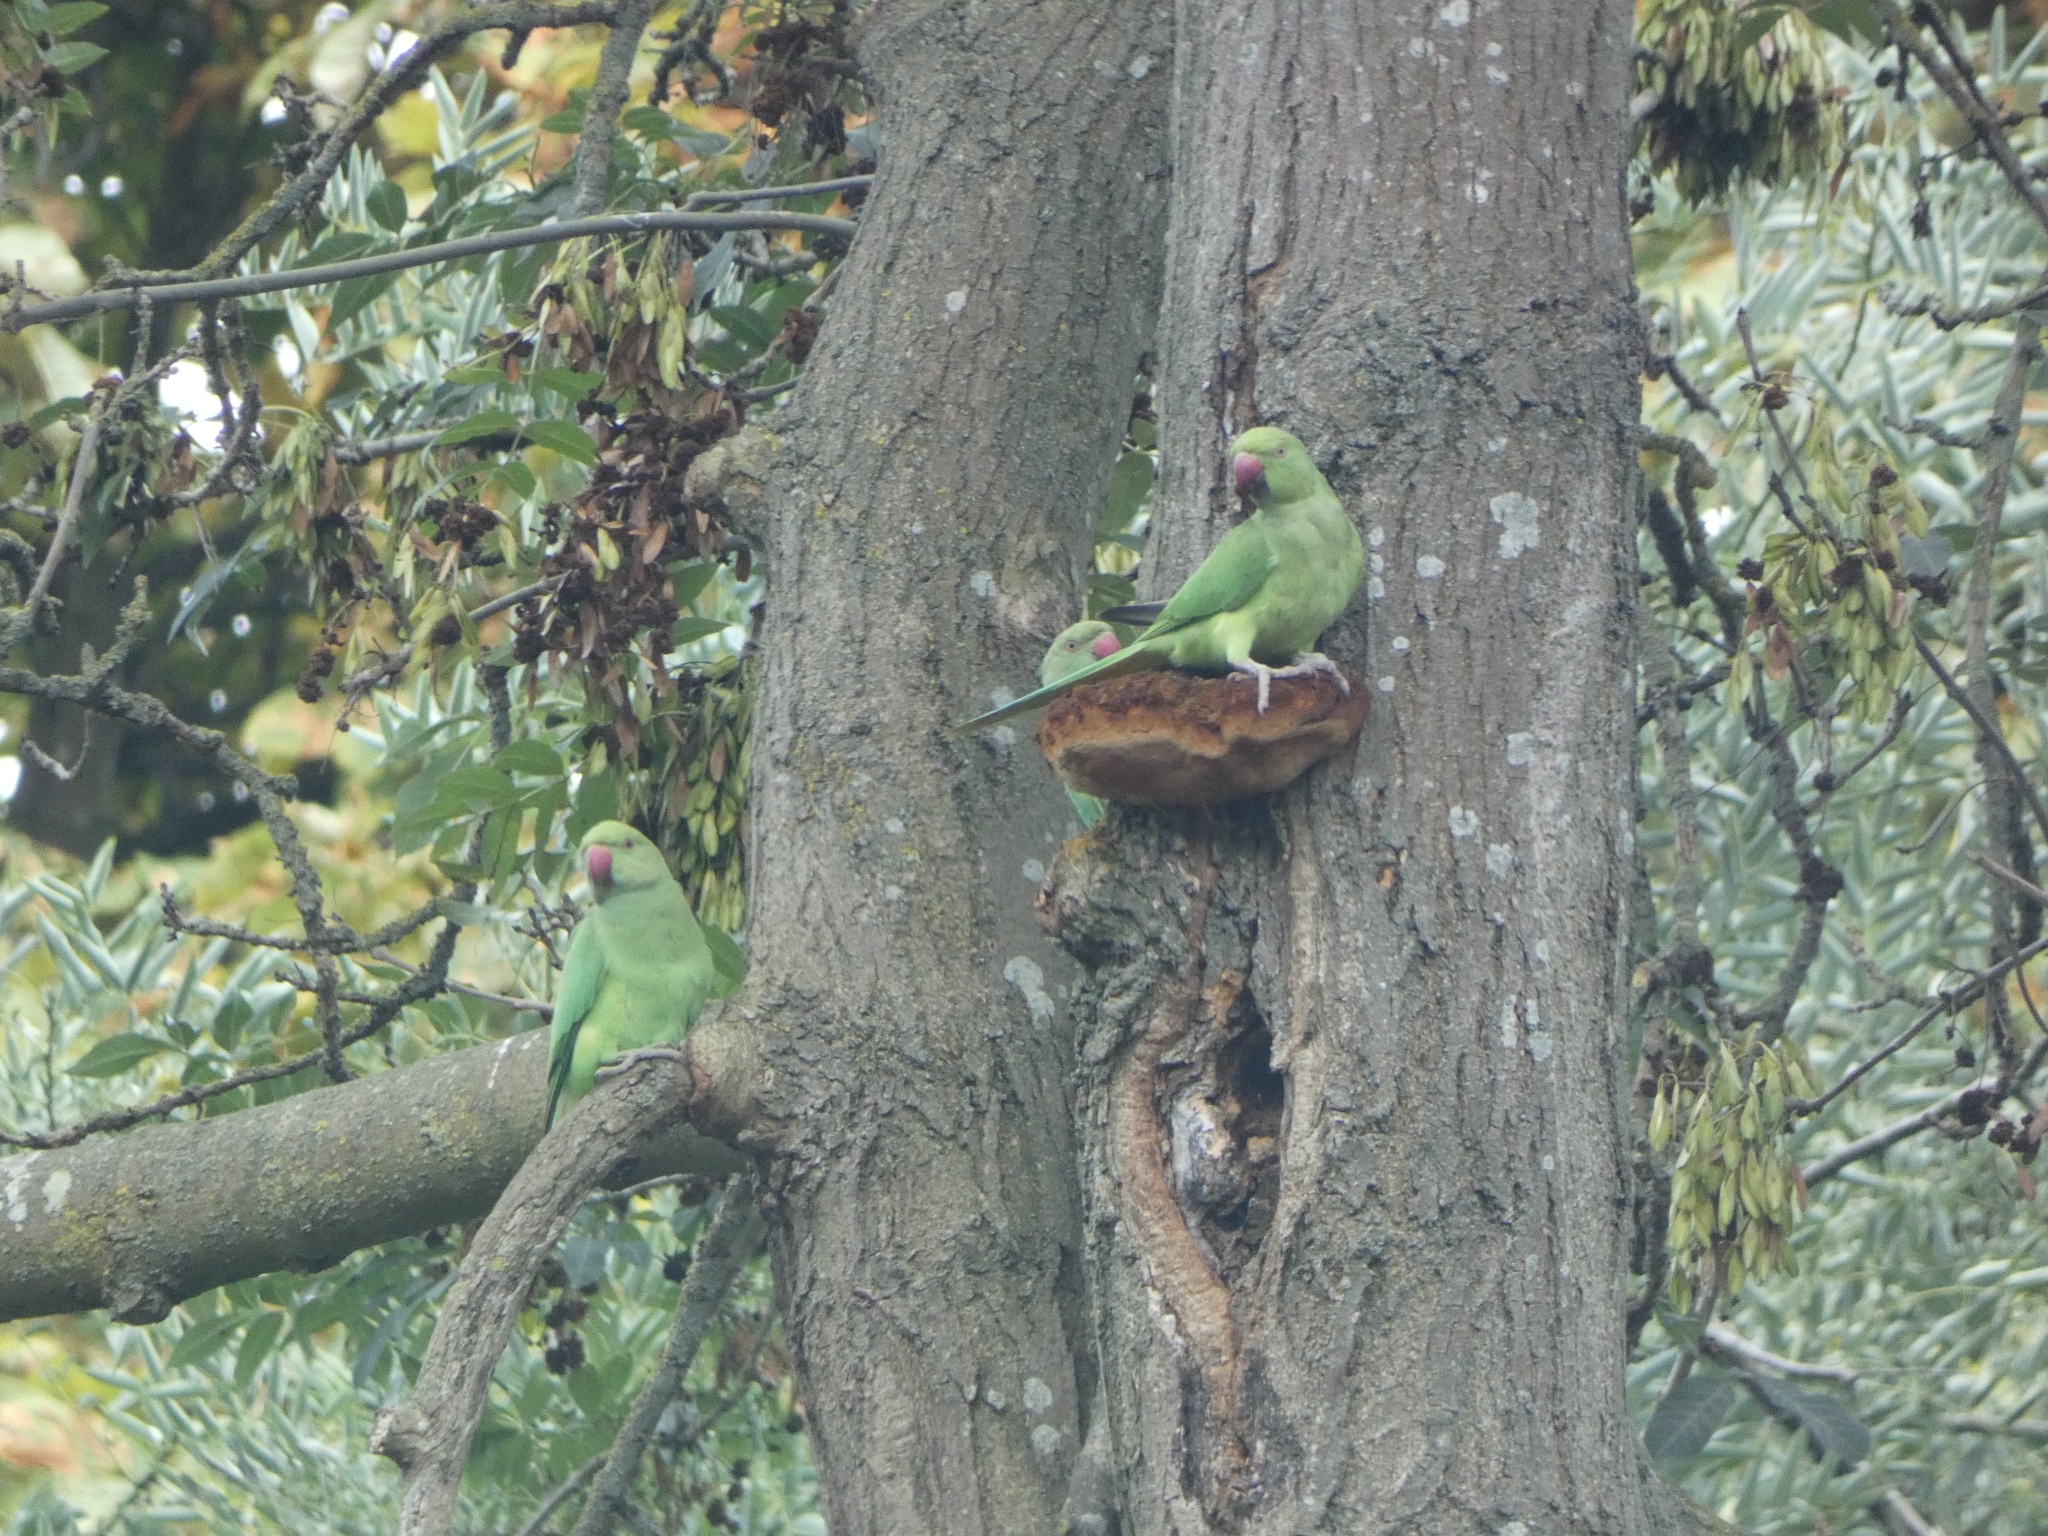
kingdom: Animalia
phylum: Chordata
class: Aves
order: Psittaciformes
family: Psittacidae
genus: Psittacula
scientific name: Psittacula krameri
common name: Rose-ringed parakeet
